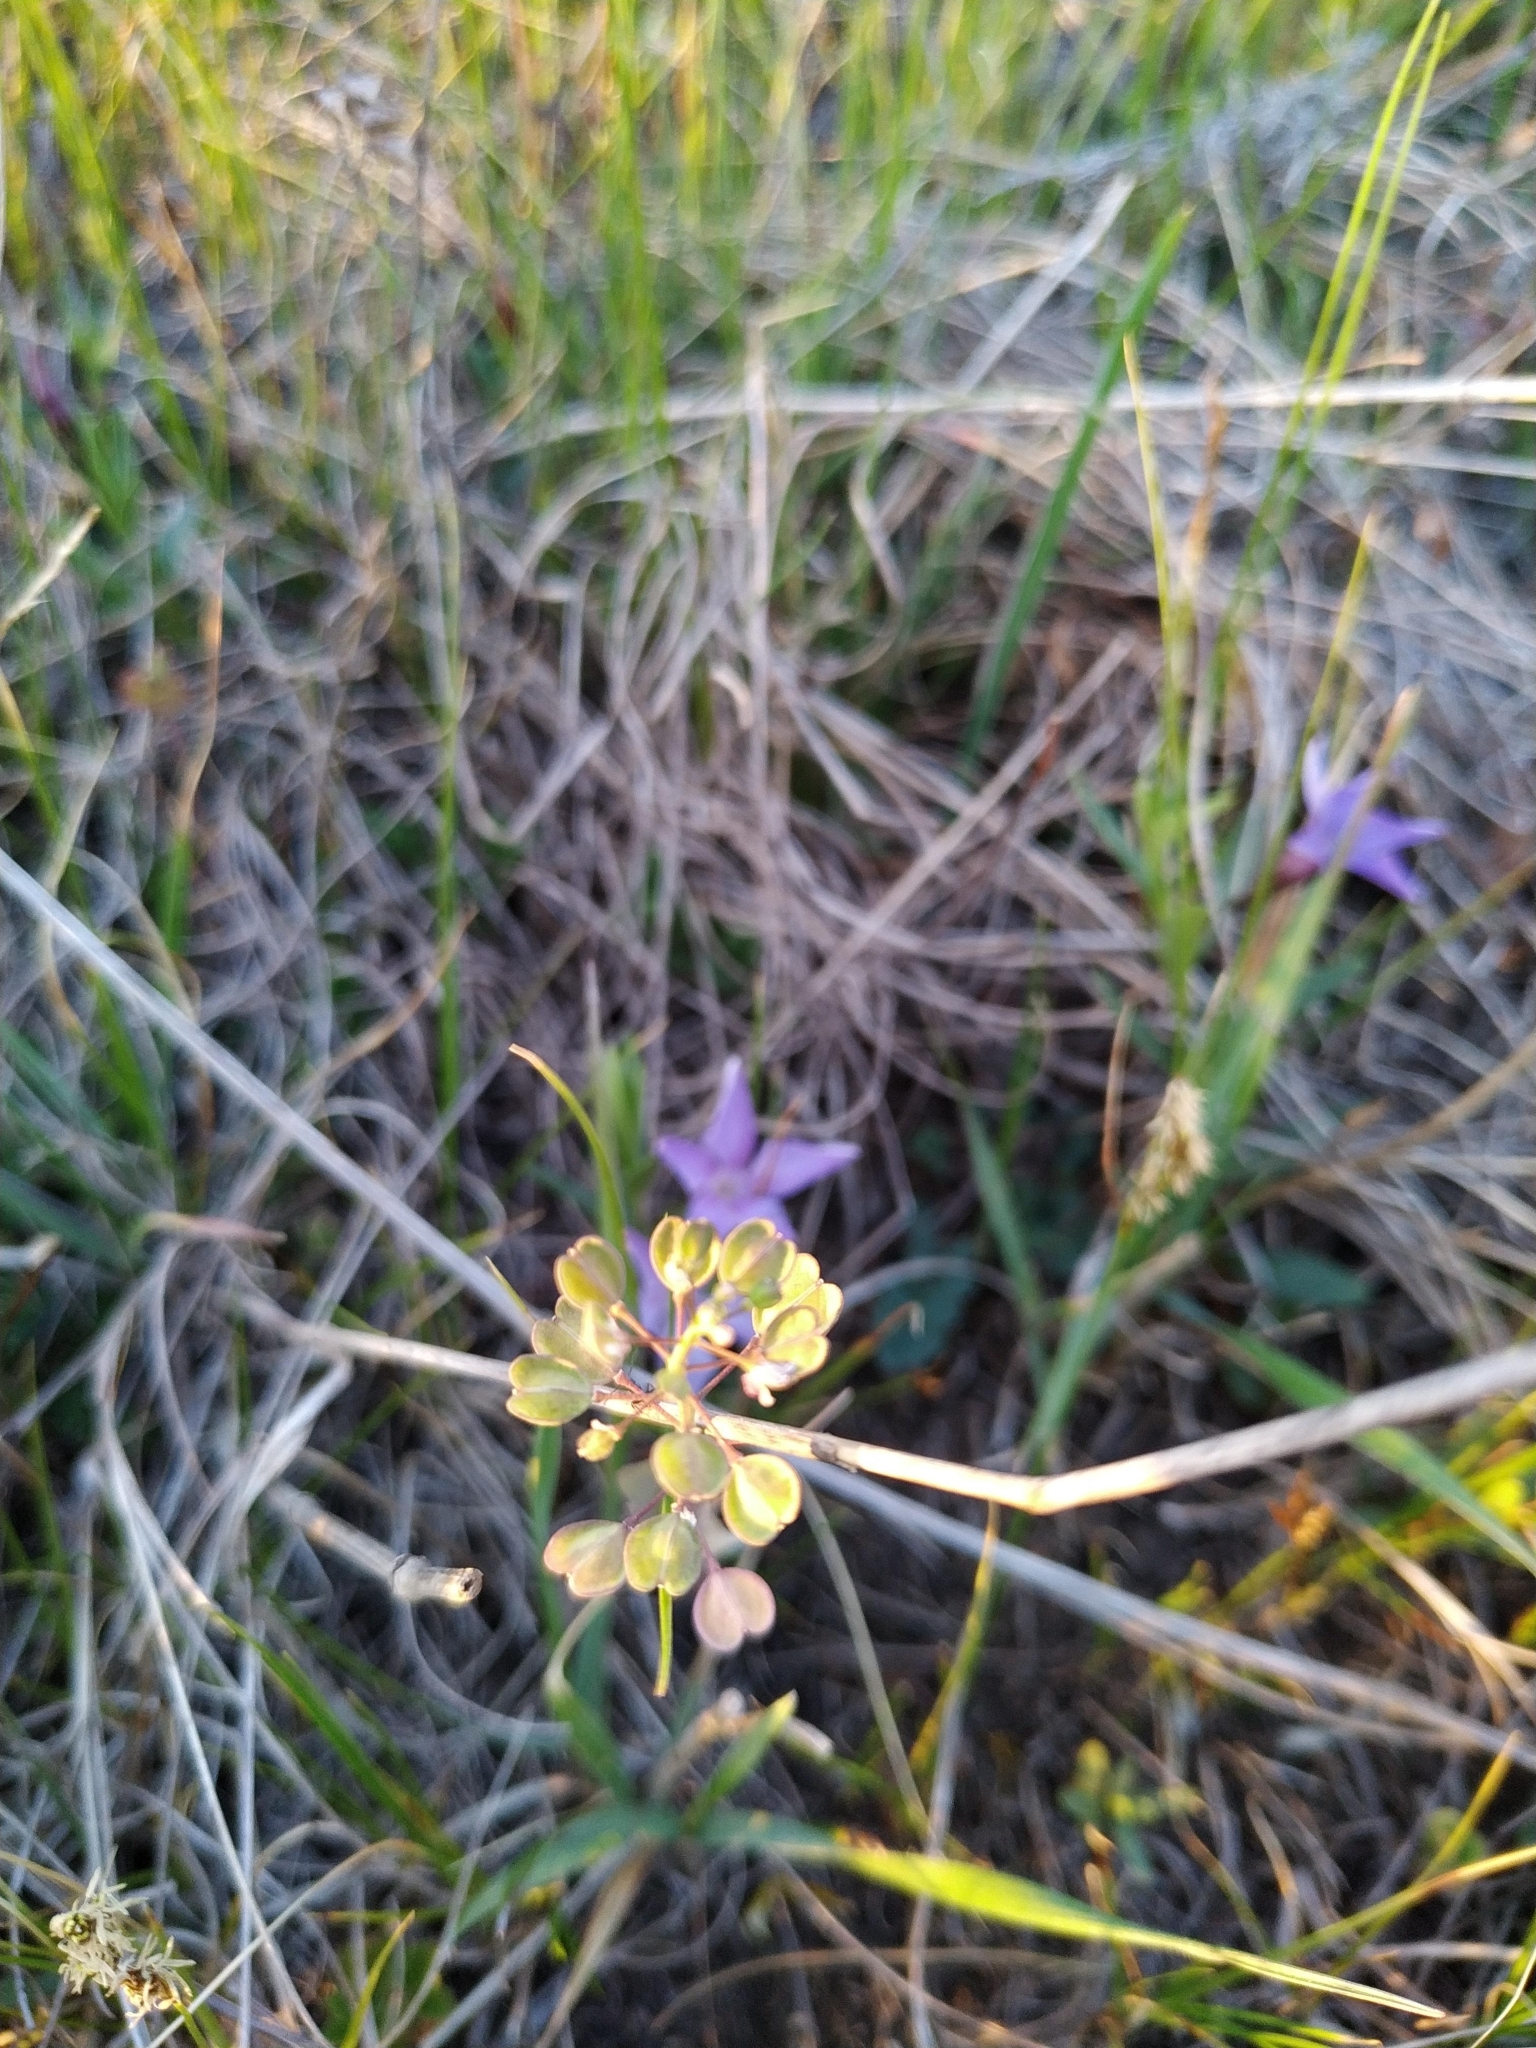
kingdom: Plantae
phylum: Tracheophyta
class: Magnoliopsida
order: Brassicales
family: Brassicaceae
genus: Noccaea
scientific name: Noccaea perfoliata
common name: Perfoliate pennycress
